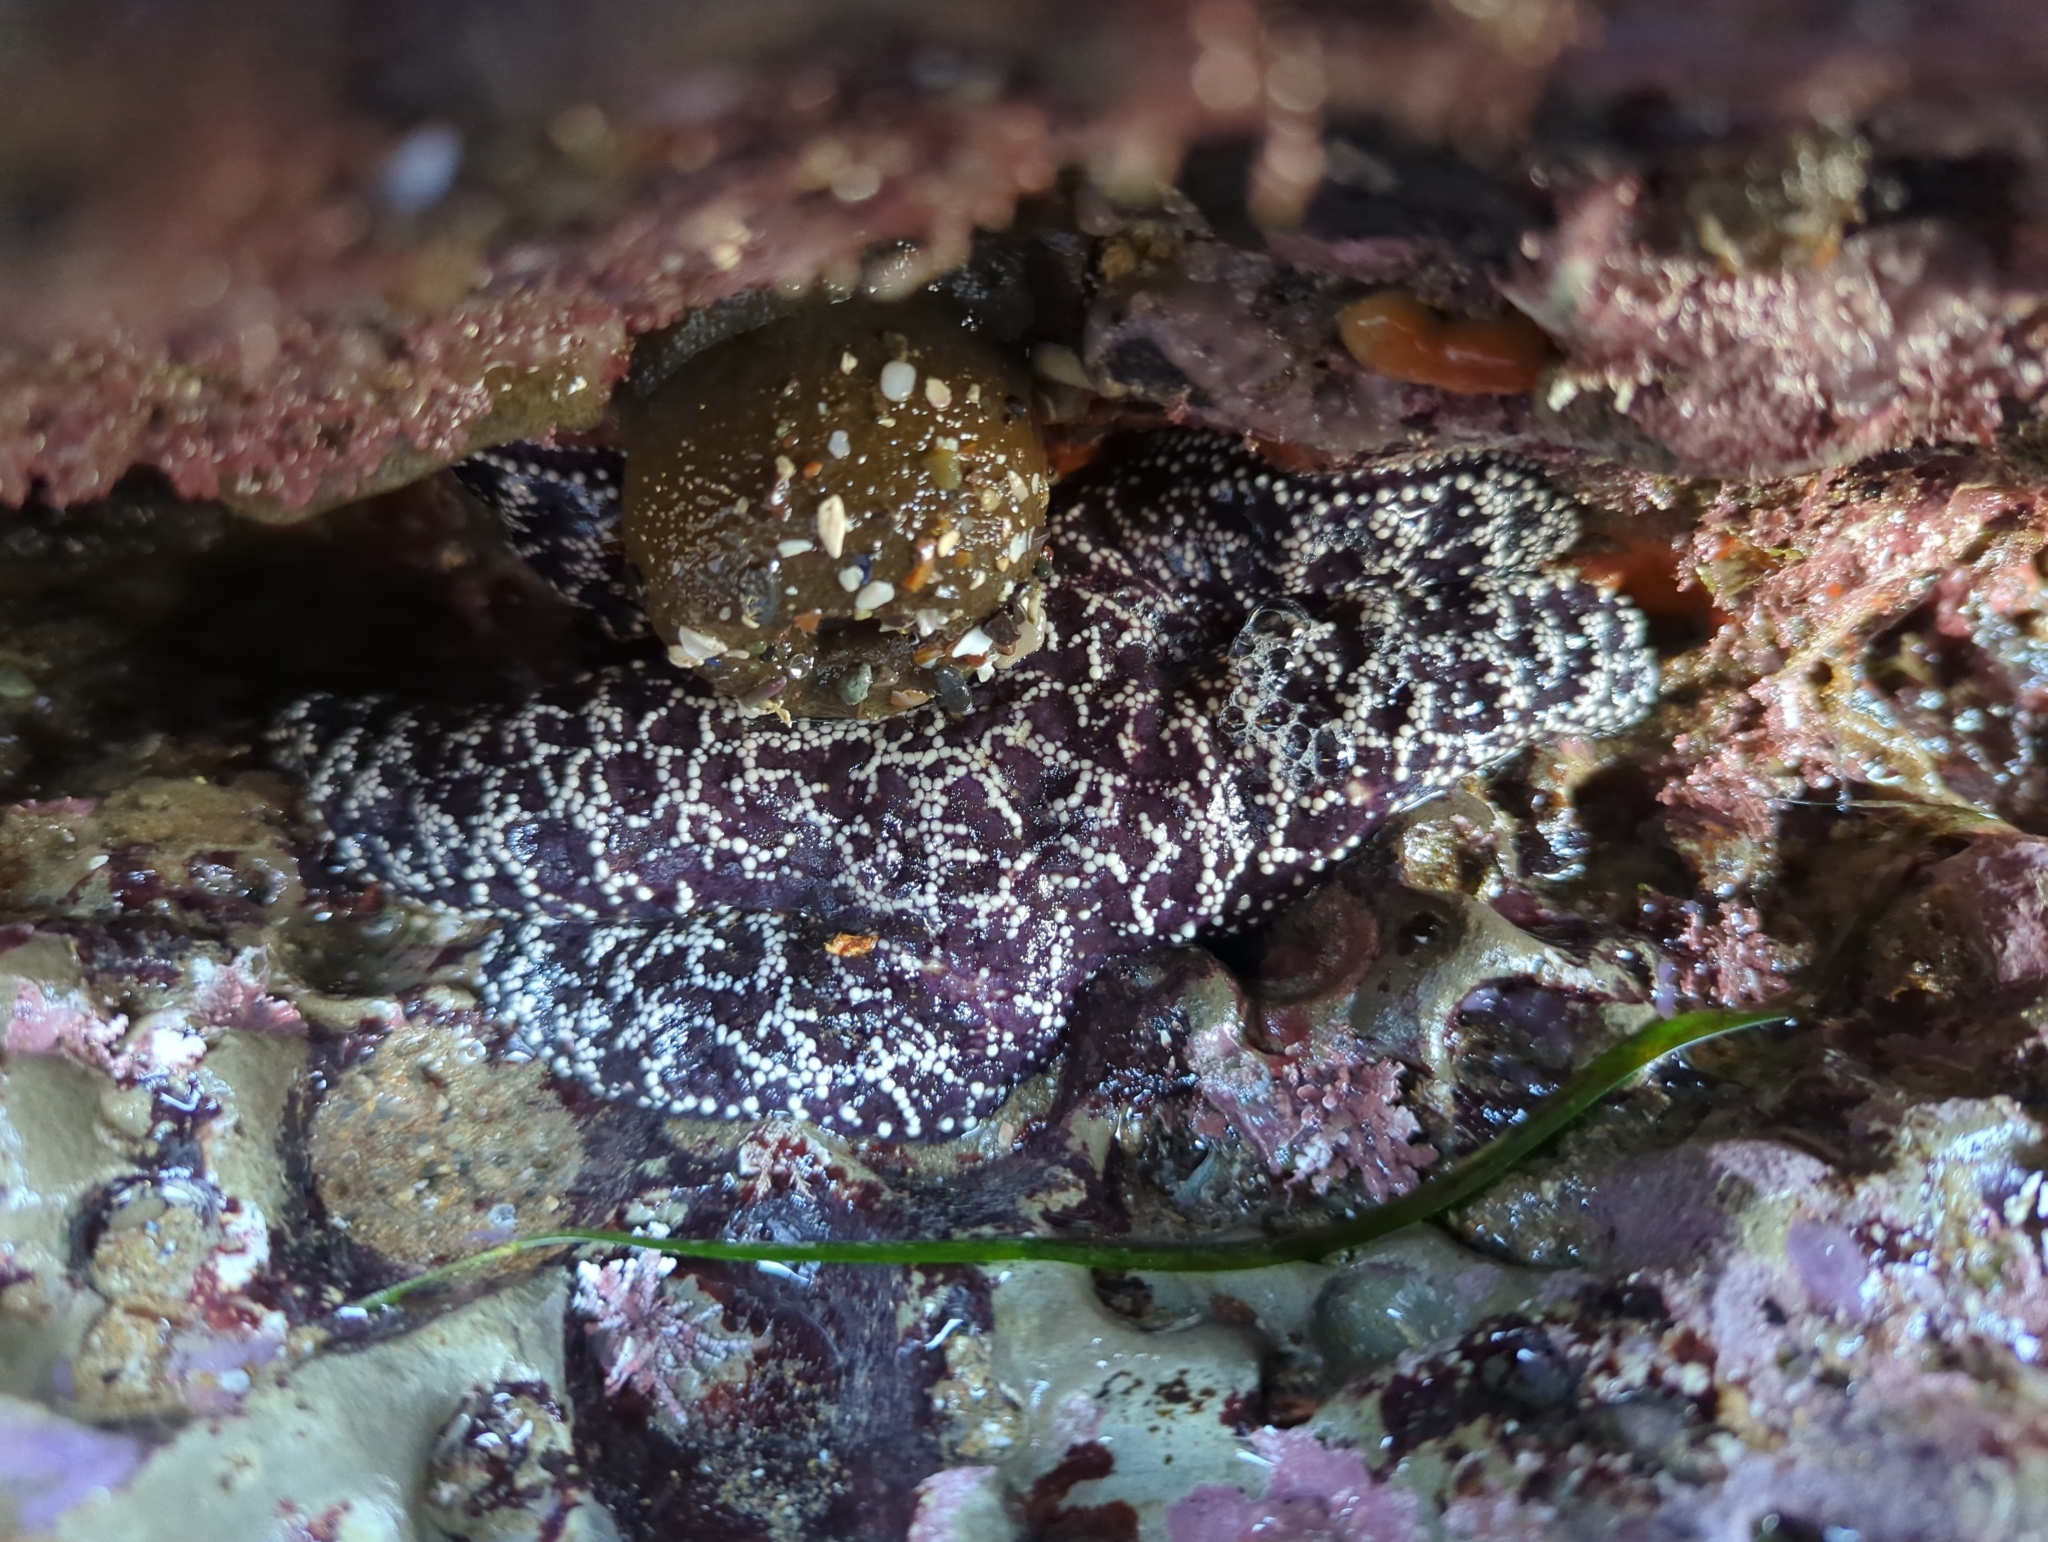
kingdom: Animalia
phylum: Echinodermata
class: Asteroidea
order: Forcipulatida
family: Asteriidae
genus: Pisaster
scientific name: Pisaster ochraceus
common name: Ochre stars
